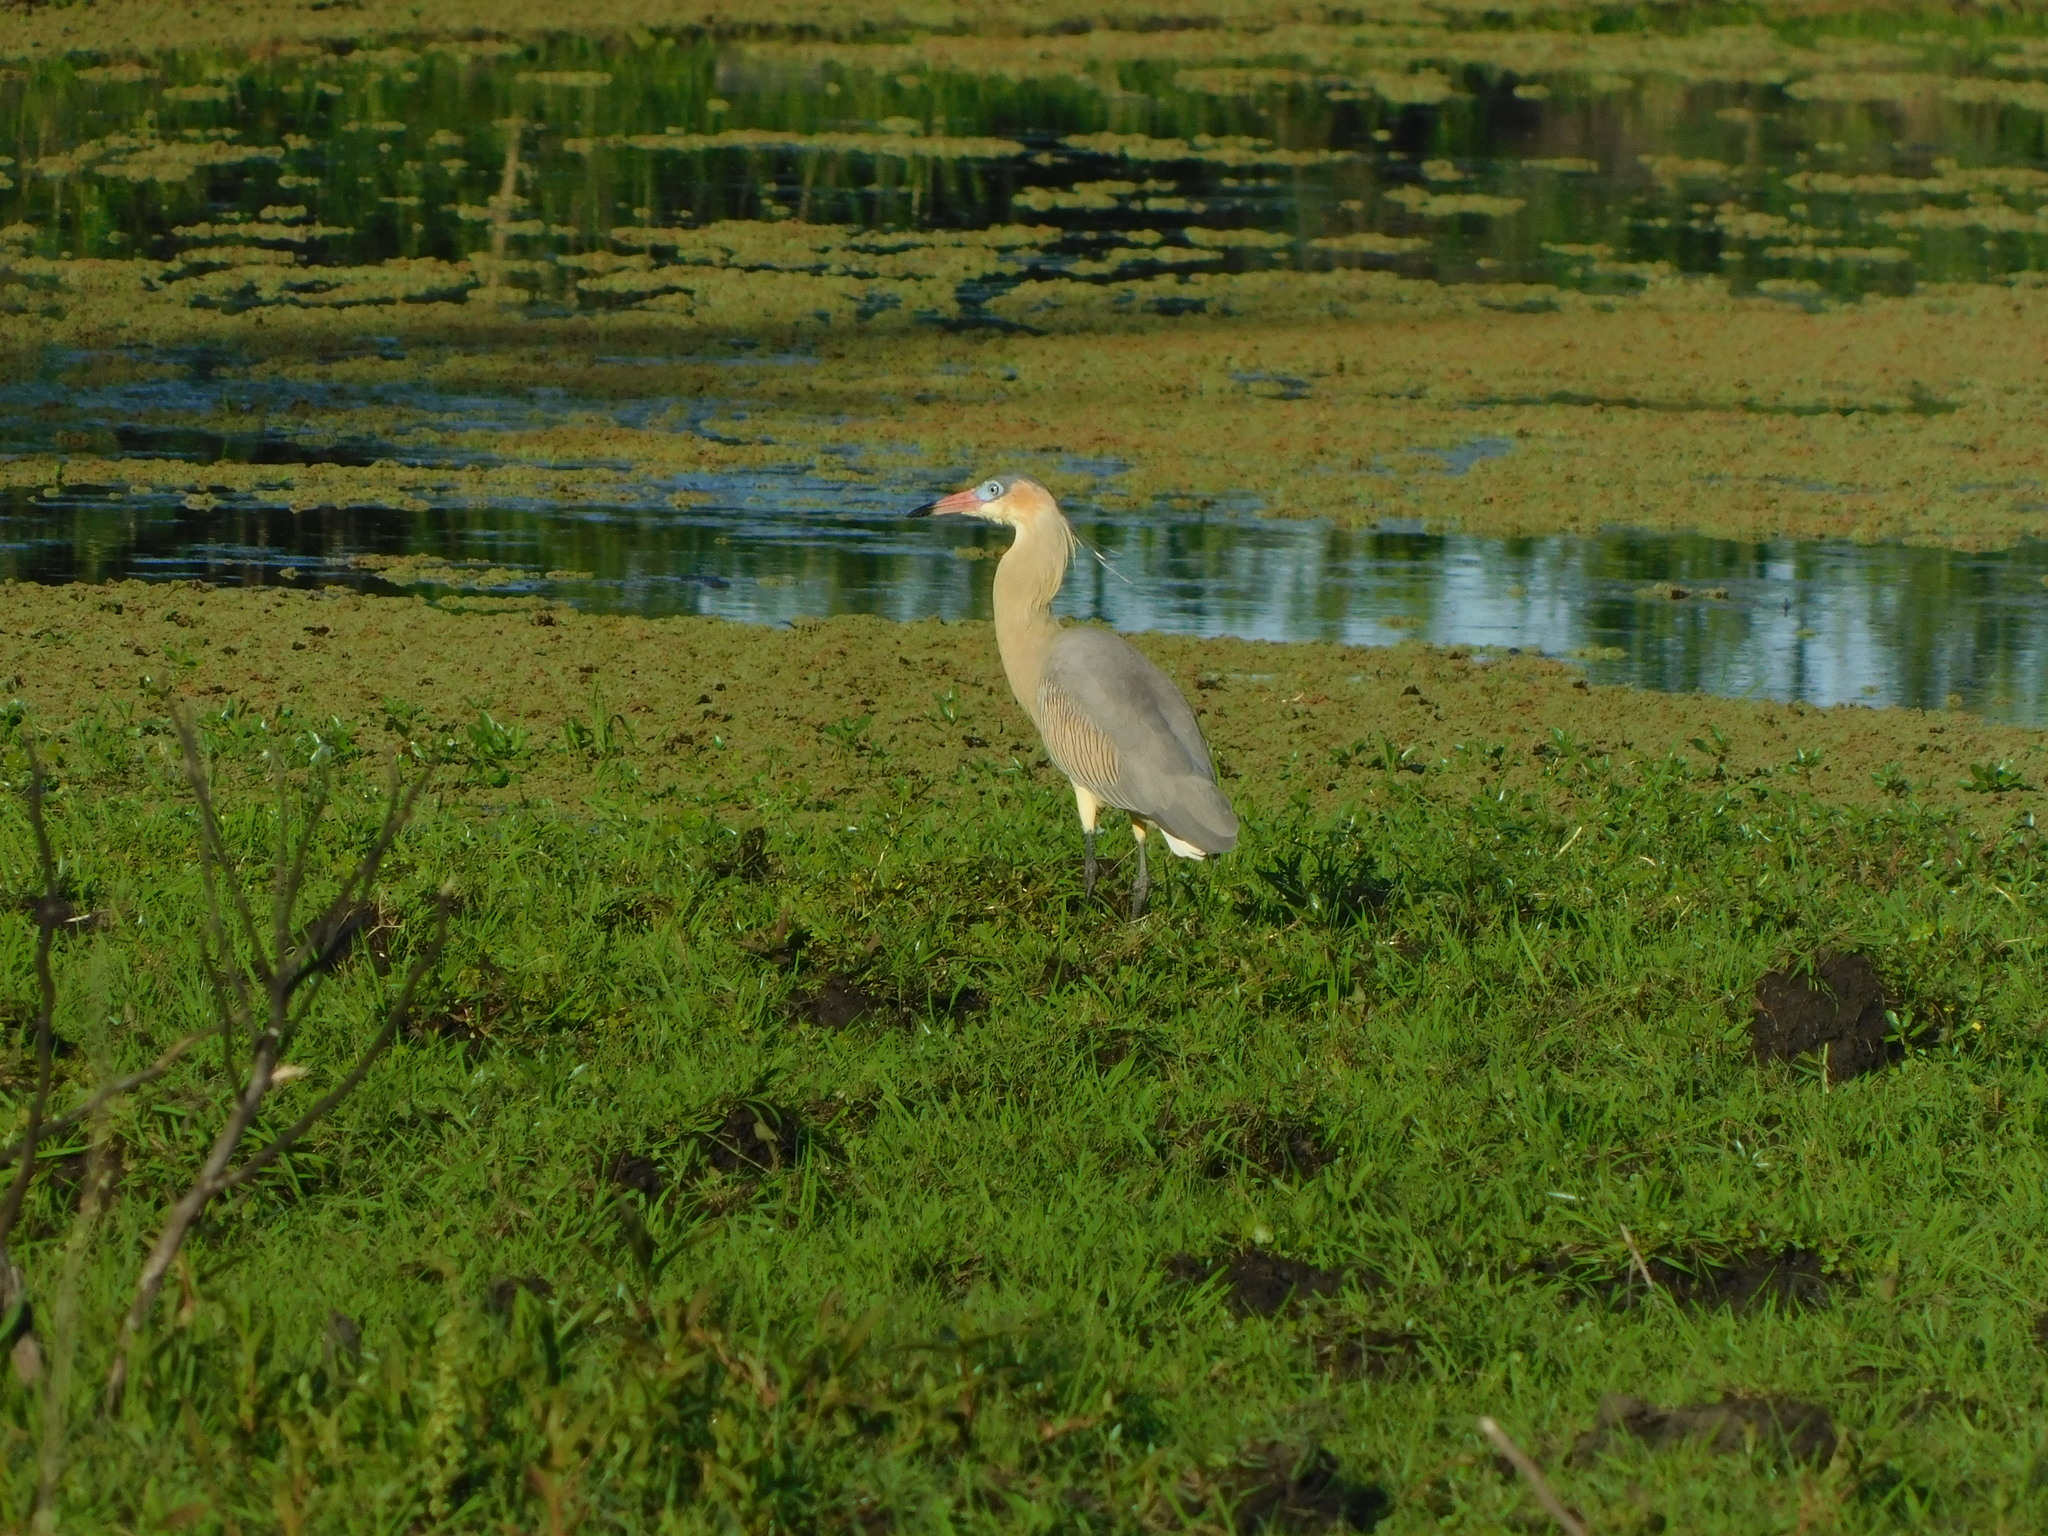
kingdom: Animalia
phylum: Chordata
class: Aves
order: Pelecaniformes
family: Ardeidae
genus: Syrigma
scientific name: Syrigma sibilatrix
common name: Whistling heron
